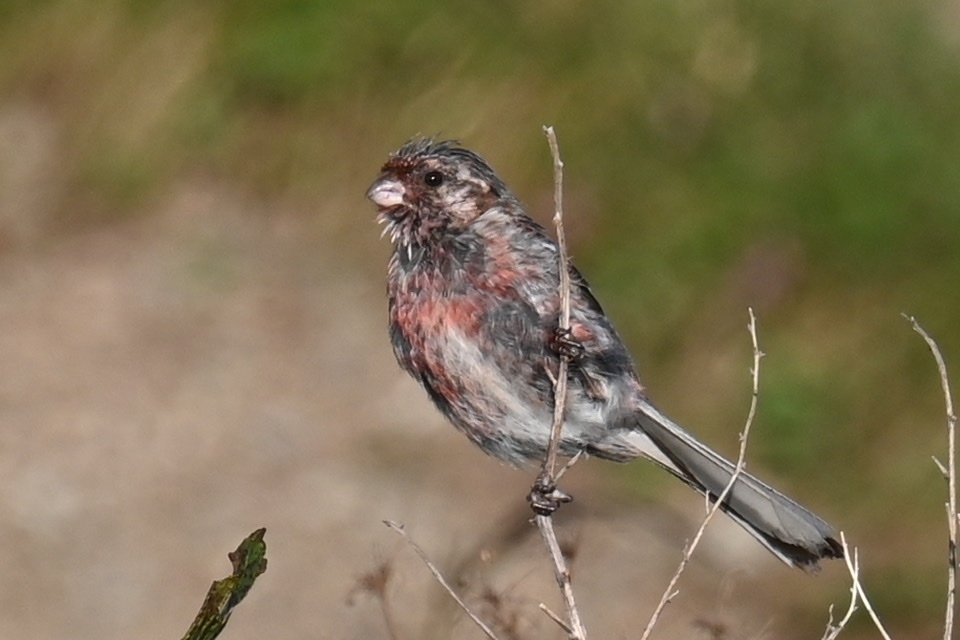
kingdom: Animalia
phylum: Chordata
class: Aves
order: Passeriformes
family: Fringillidae
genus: Carpodacus
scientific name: Carpodacus sibiricus
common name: Long-tailed rosefinch
